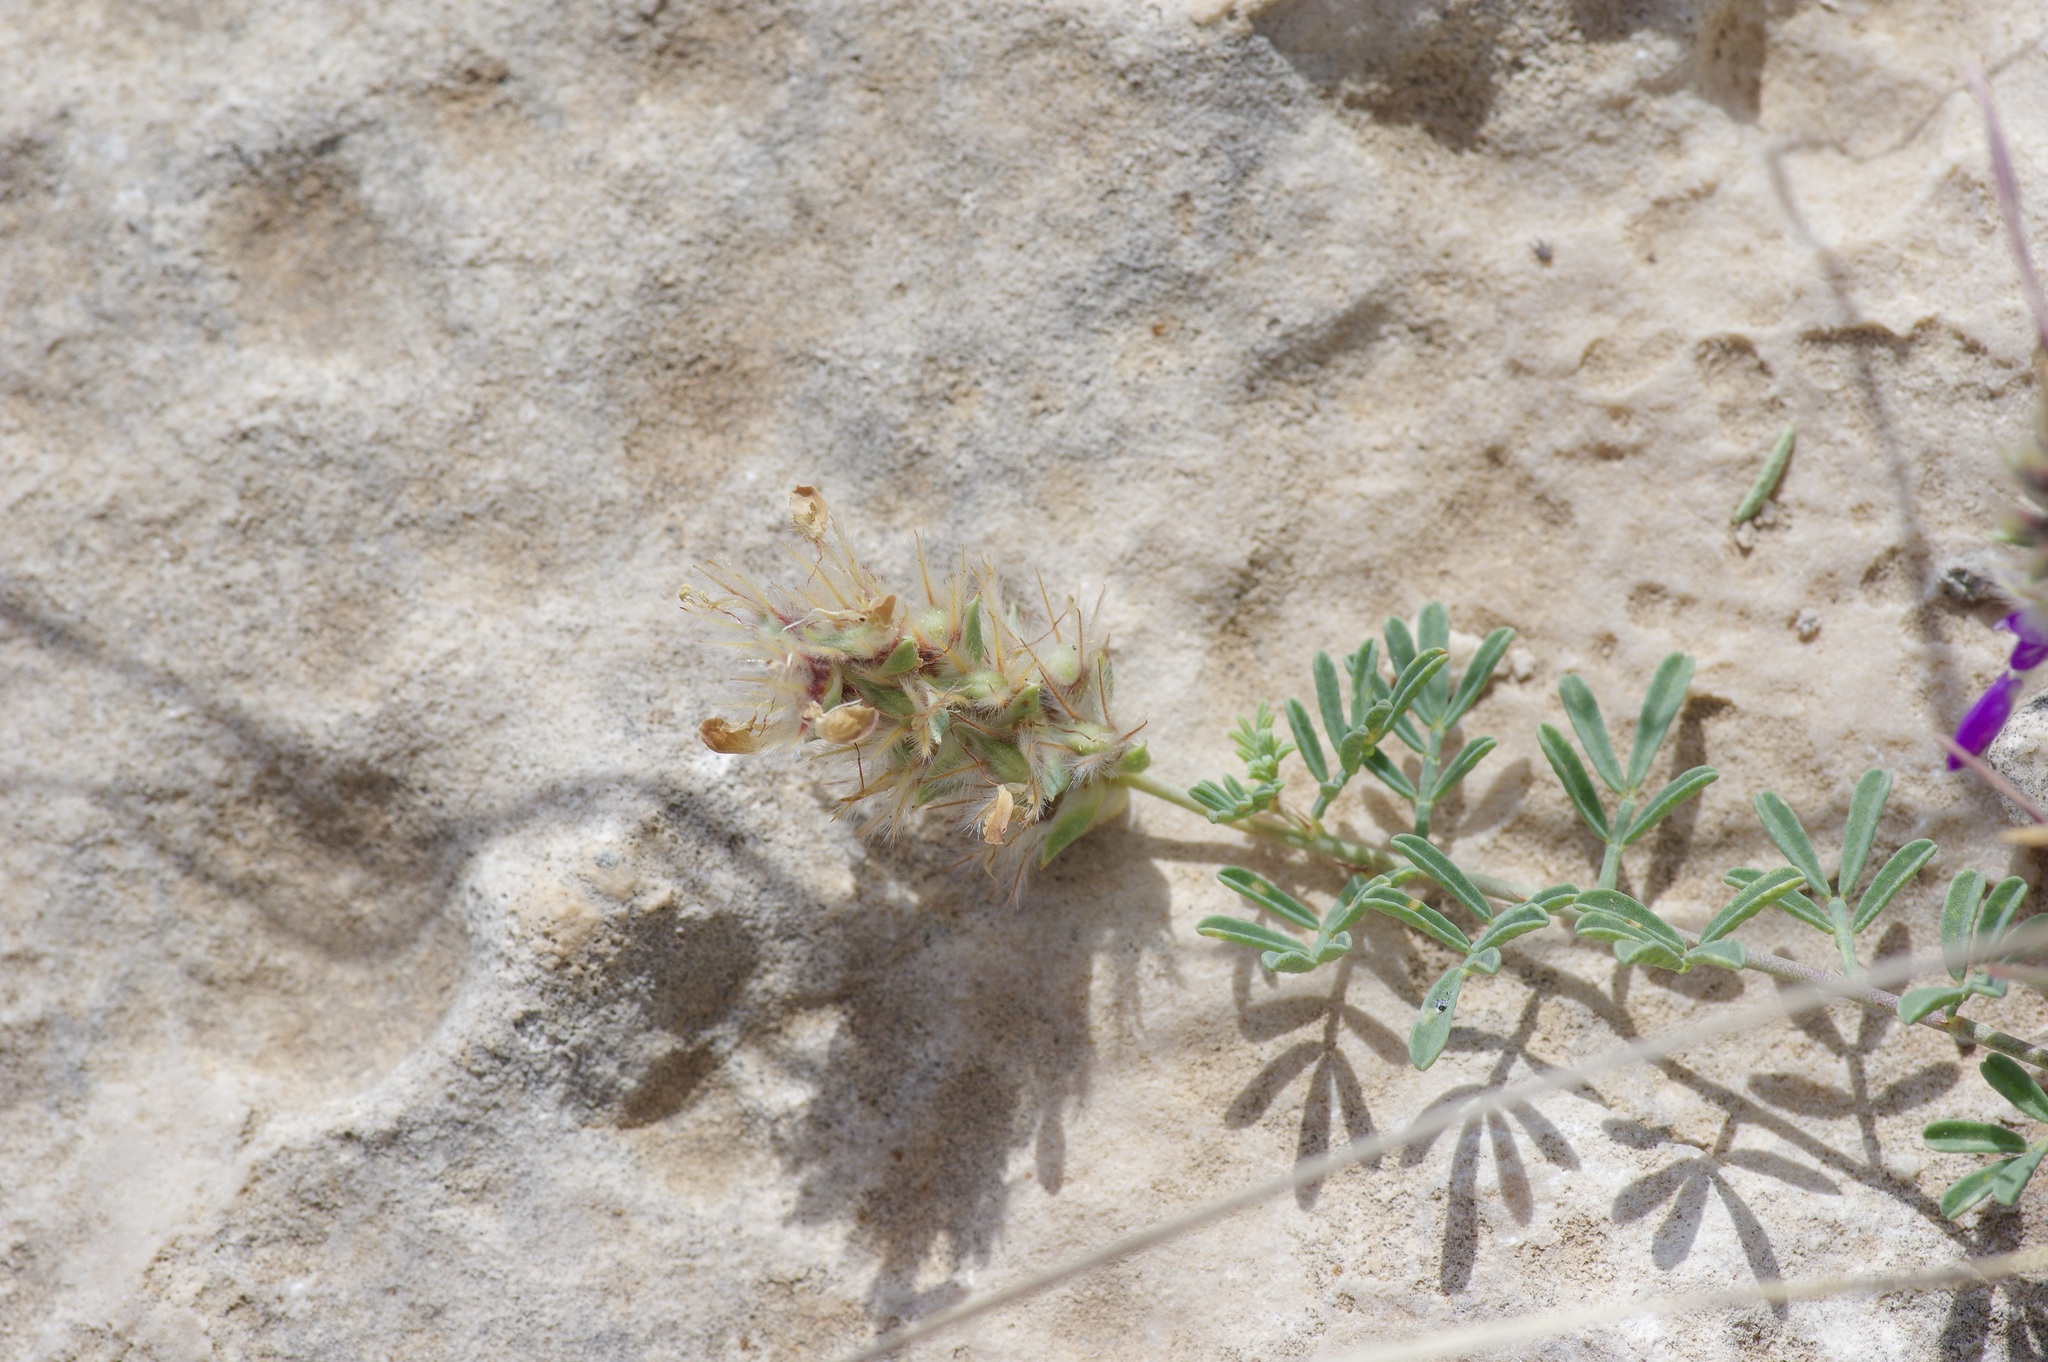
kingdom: Plantae
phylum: Tracheophyta
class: Magnoliopsida
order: Fabales
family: Fabaceae
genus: Dalea
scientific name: Dalea pogonathera
